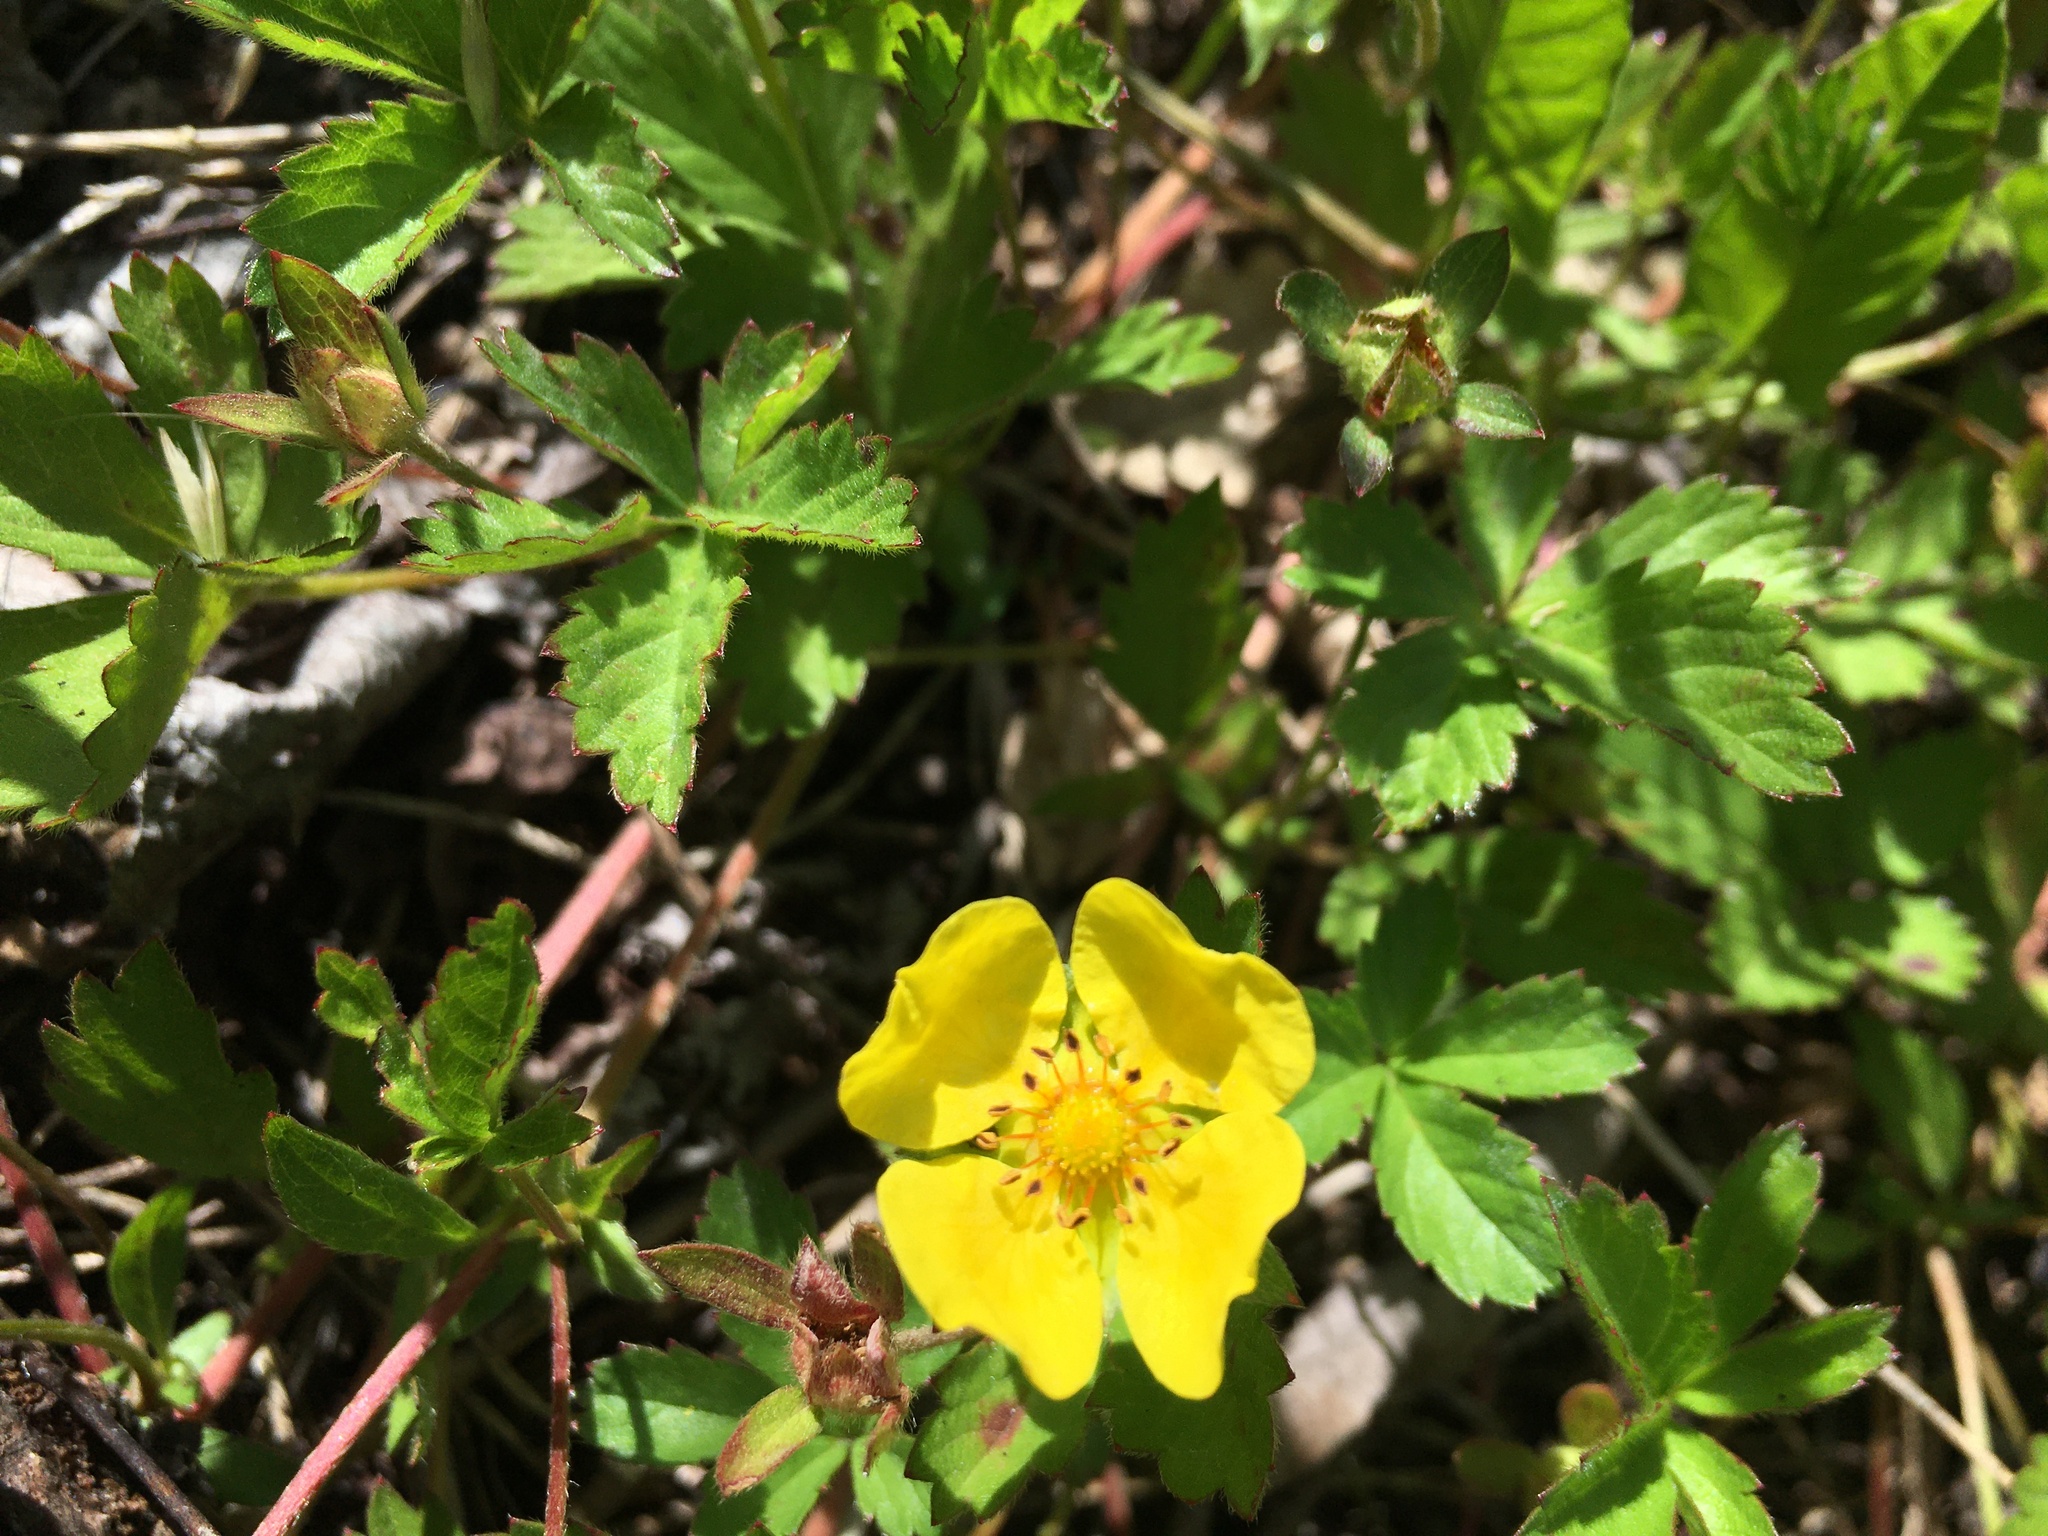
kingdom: Plantae
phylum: Tracheophyta
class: Magnoliopsida
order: Rosales
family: Rosaceae
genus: Potentilla
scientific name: Potentilla reptans
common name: Creeping cinquefoil
